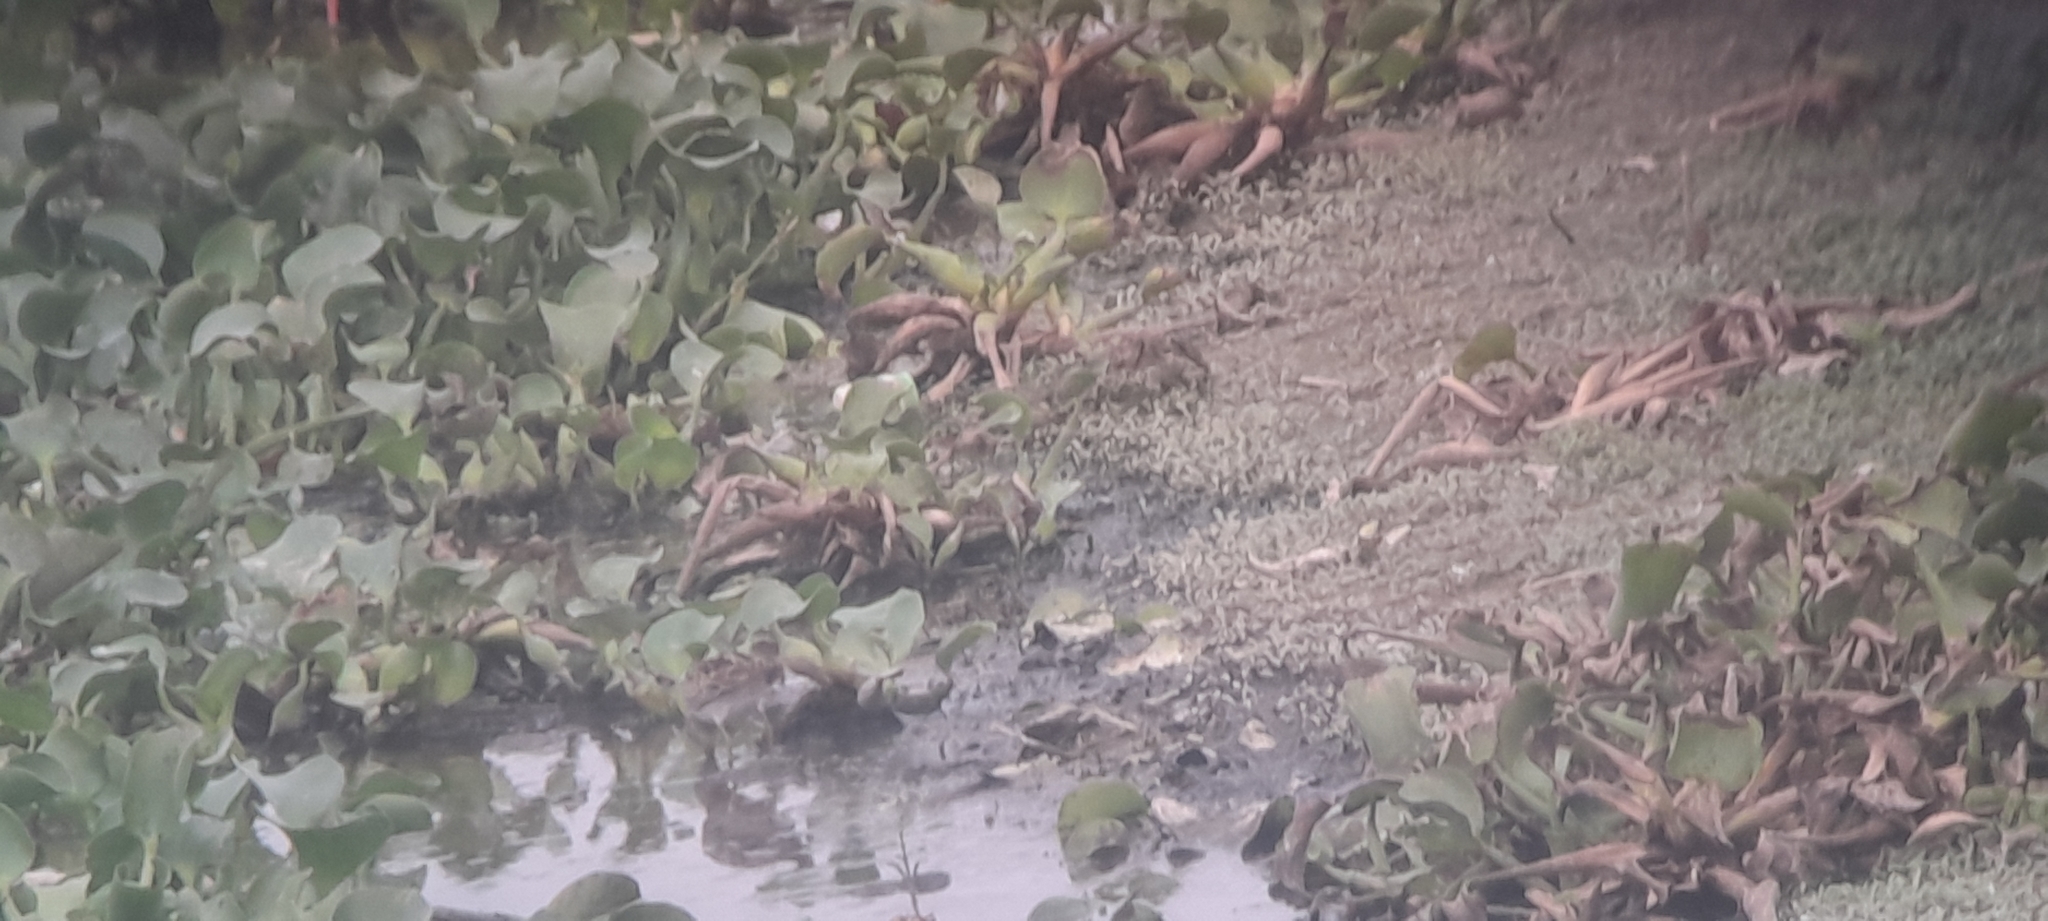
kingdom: Plantae
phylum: Tracheophyta
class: Liliopsida
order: Commelinales
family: Pontederiaceae
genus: Pontederia
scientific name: Pontederia crassipes
